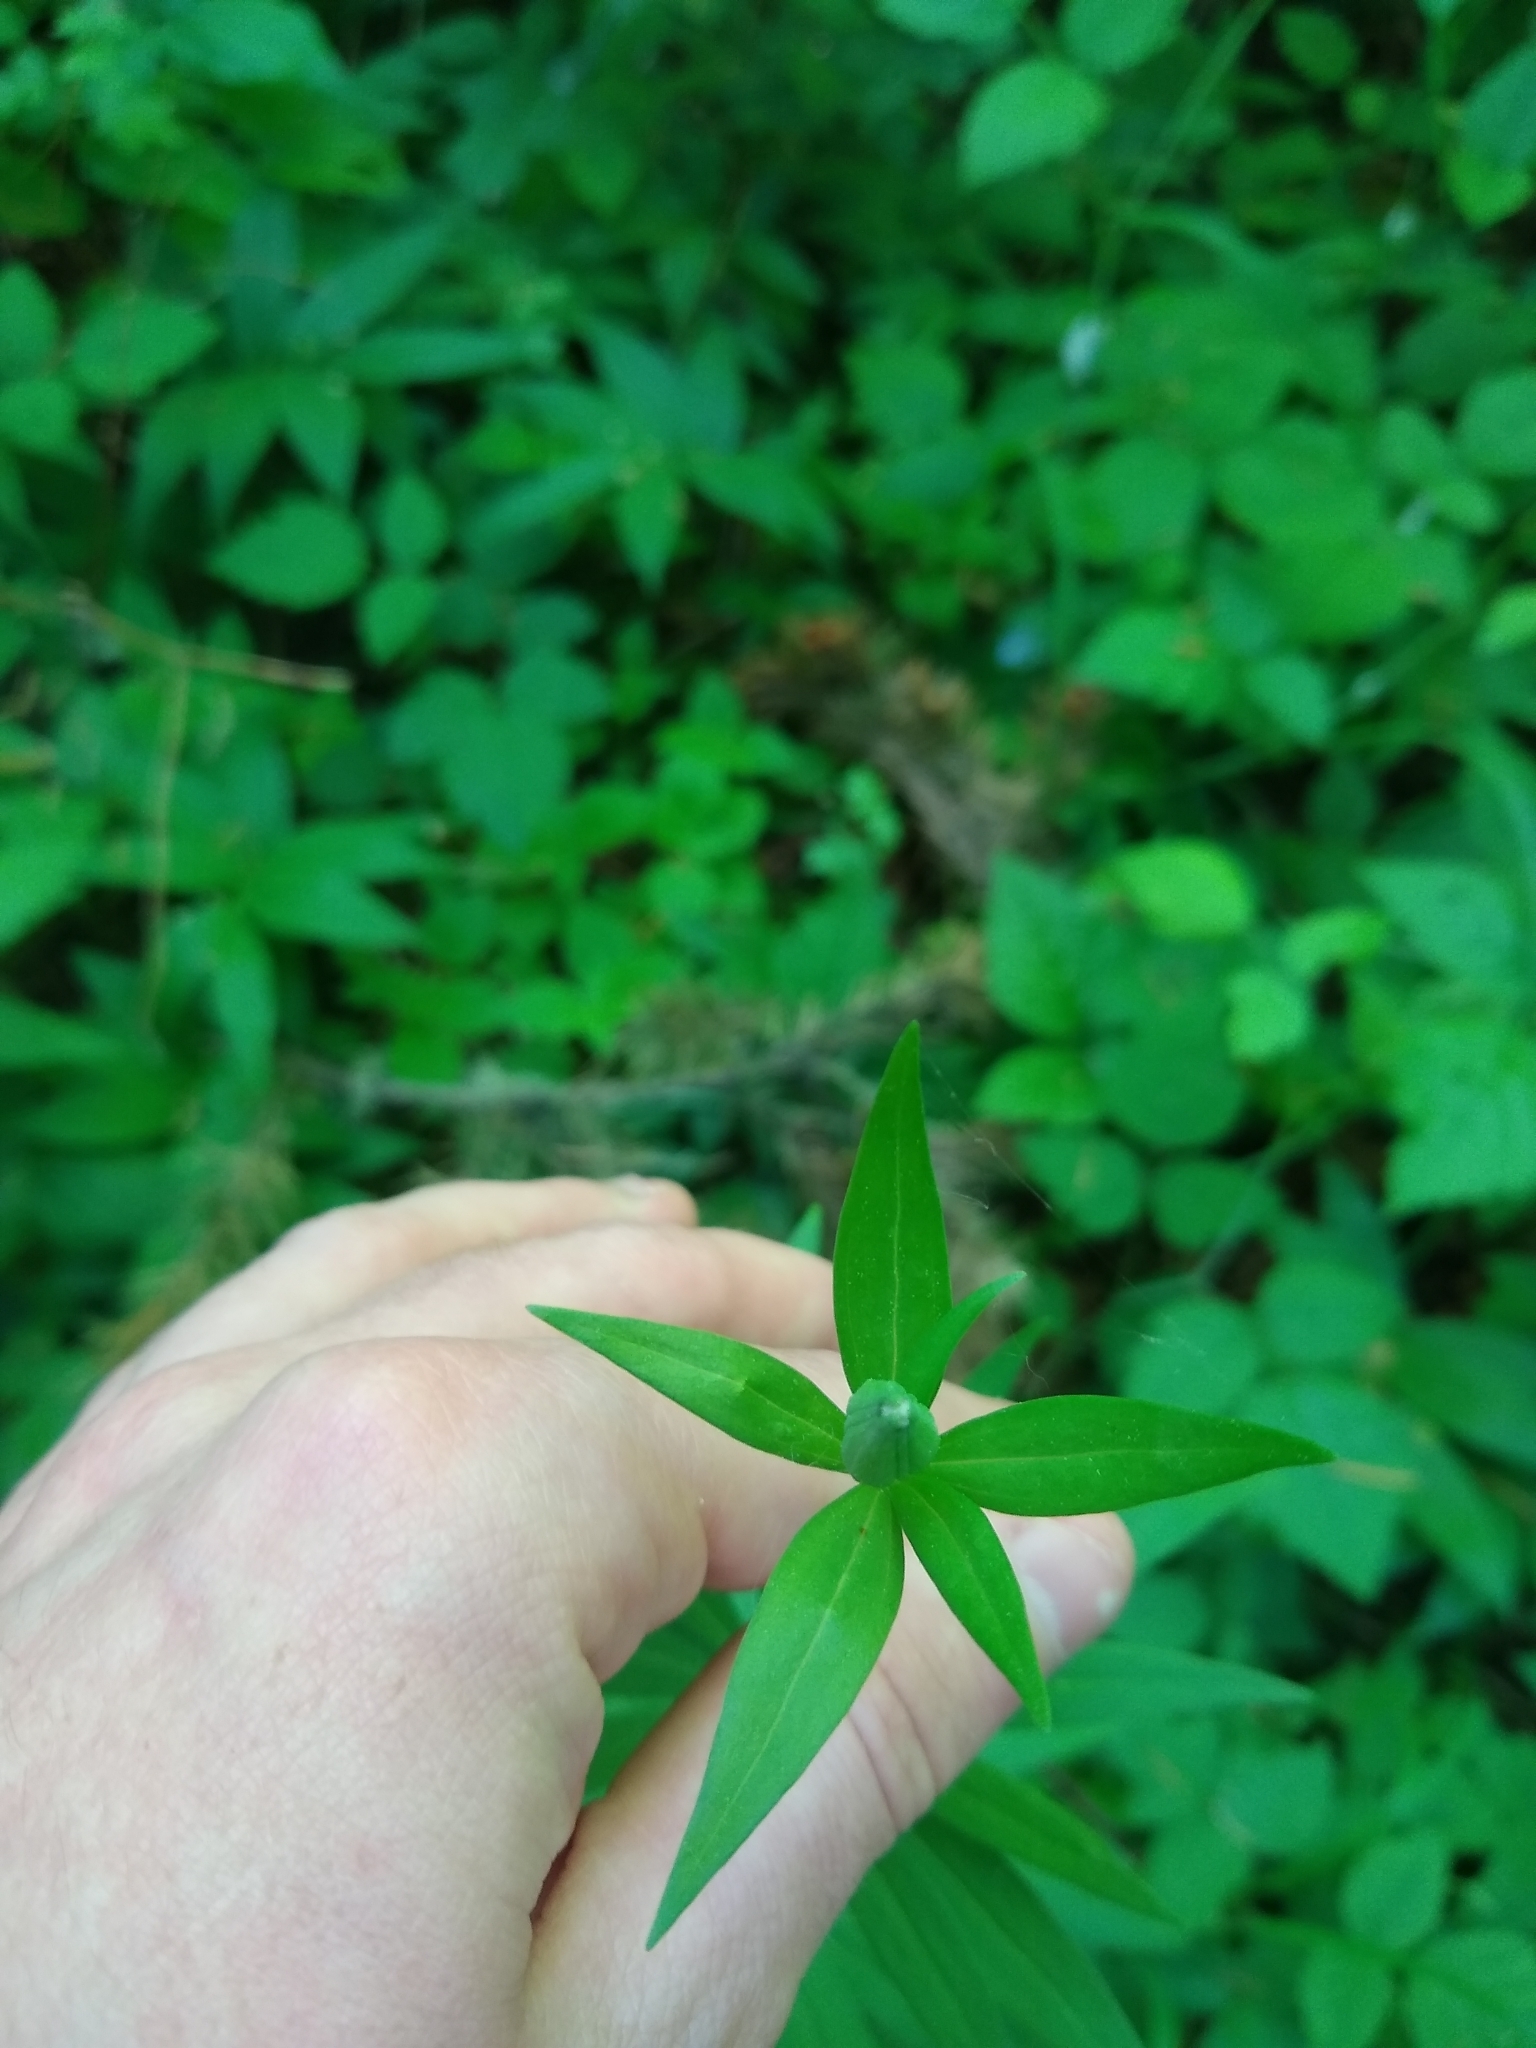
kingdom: Plantae
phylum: Tracheophyta
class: Liliopsida
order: Liliales
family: Liliaceae
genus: Lilium
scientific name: Lilium columbianum
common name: Columbia lily
